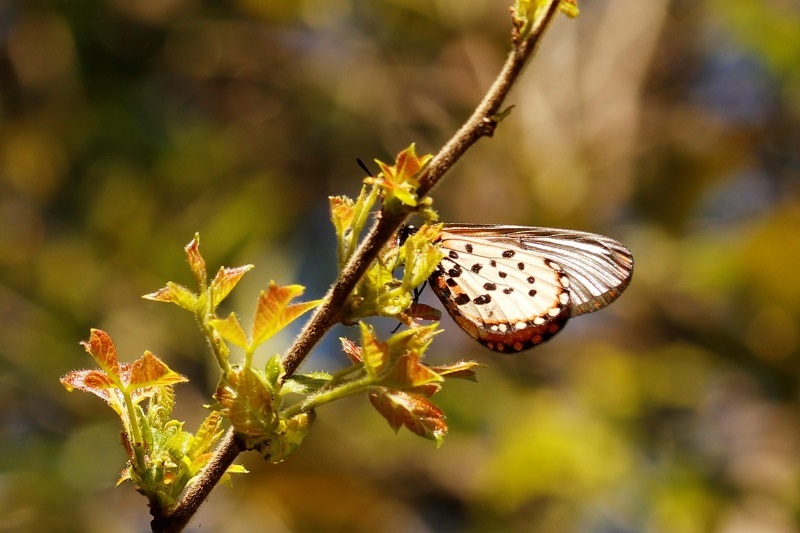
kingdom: Animalia
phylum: Arthropoda
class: Insecta
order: Lepidoptera
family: Nymphalidae
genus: Acraea
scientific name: Acraea horta
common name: Garden acraea
